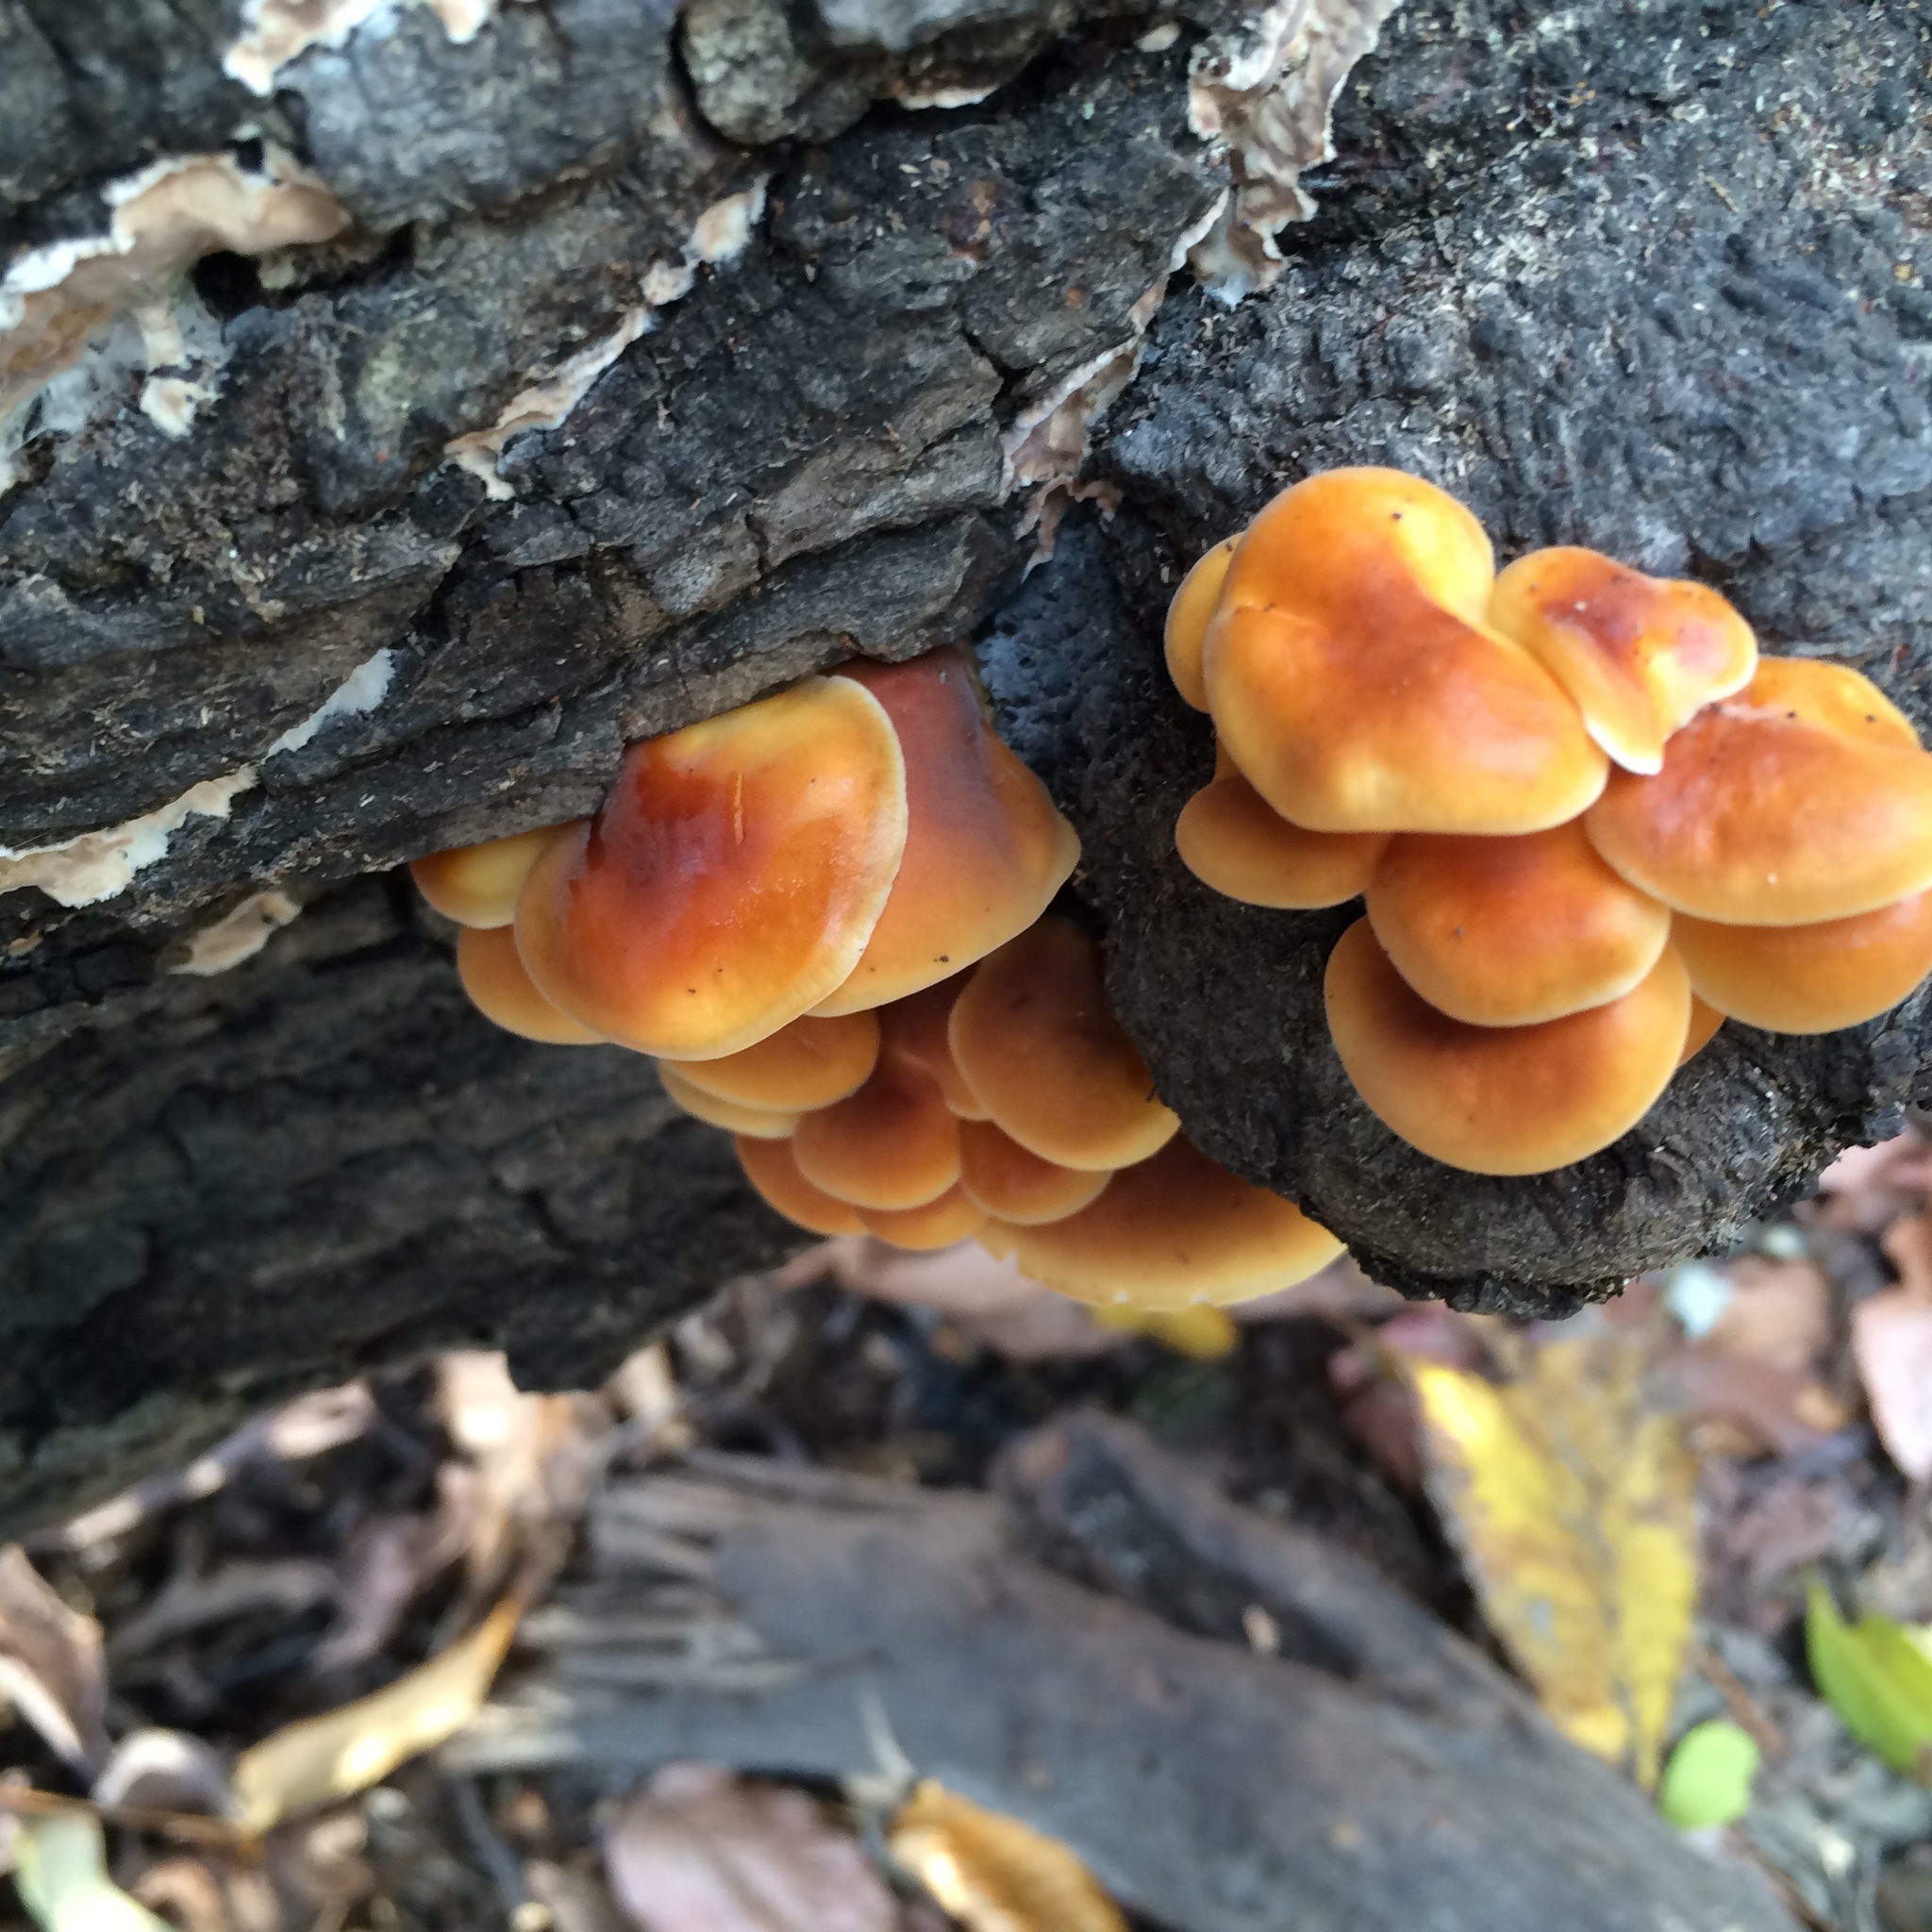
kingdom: Fungi
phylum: Basidiomycota
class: Agaricomycetes
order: Agaricales
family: Physalacriaceae
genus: Flammulina
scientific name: Flammulina velutipes
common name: Velvet shank
